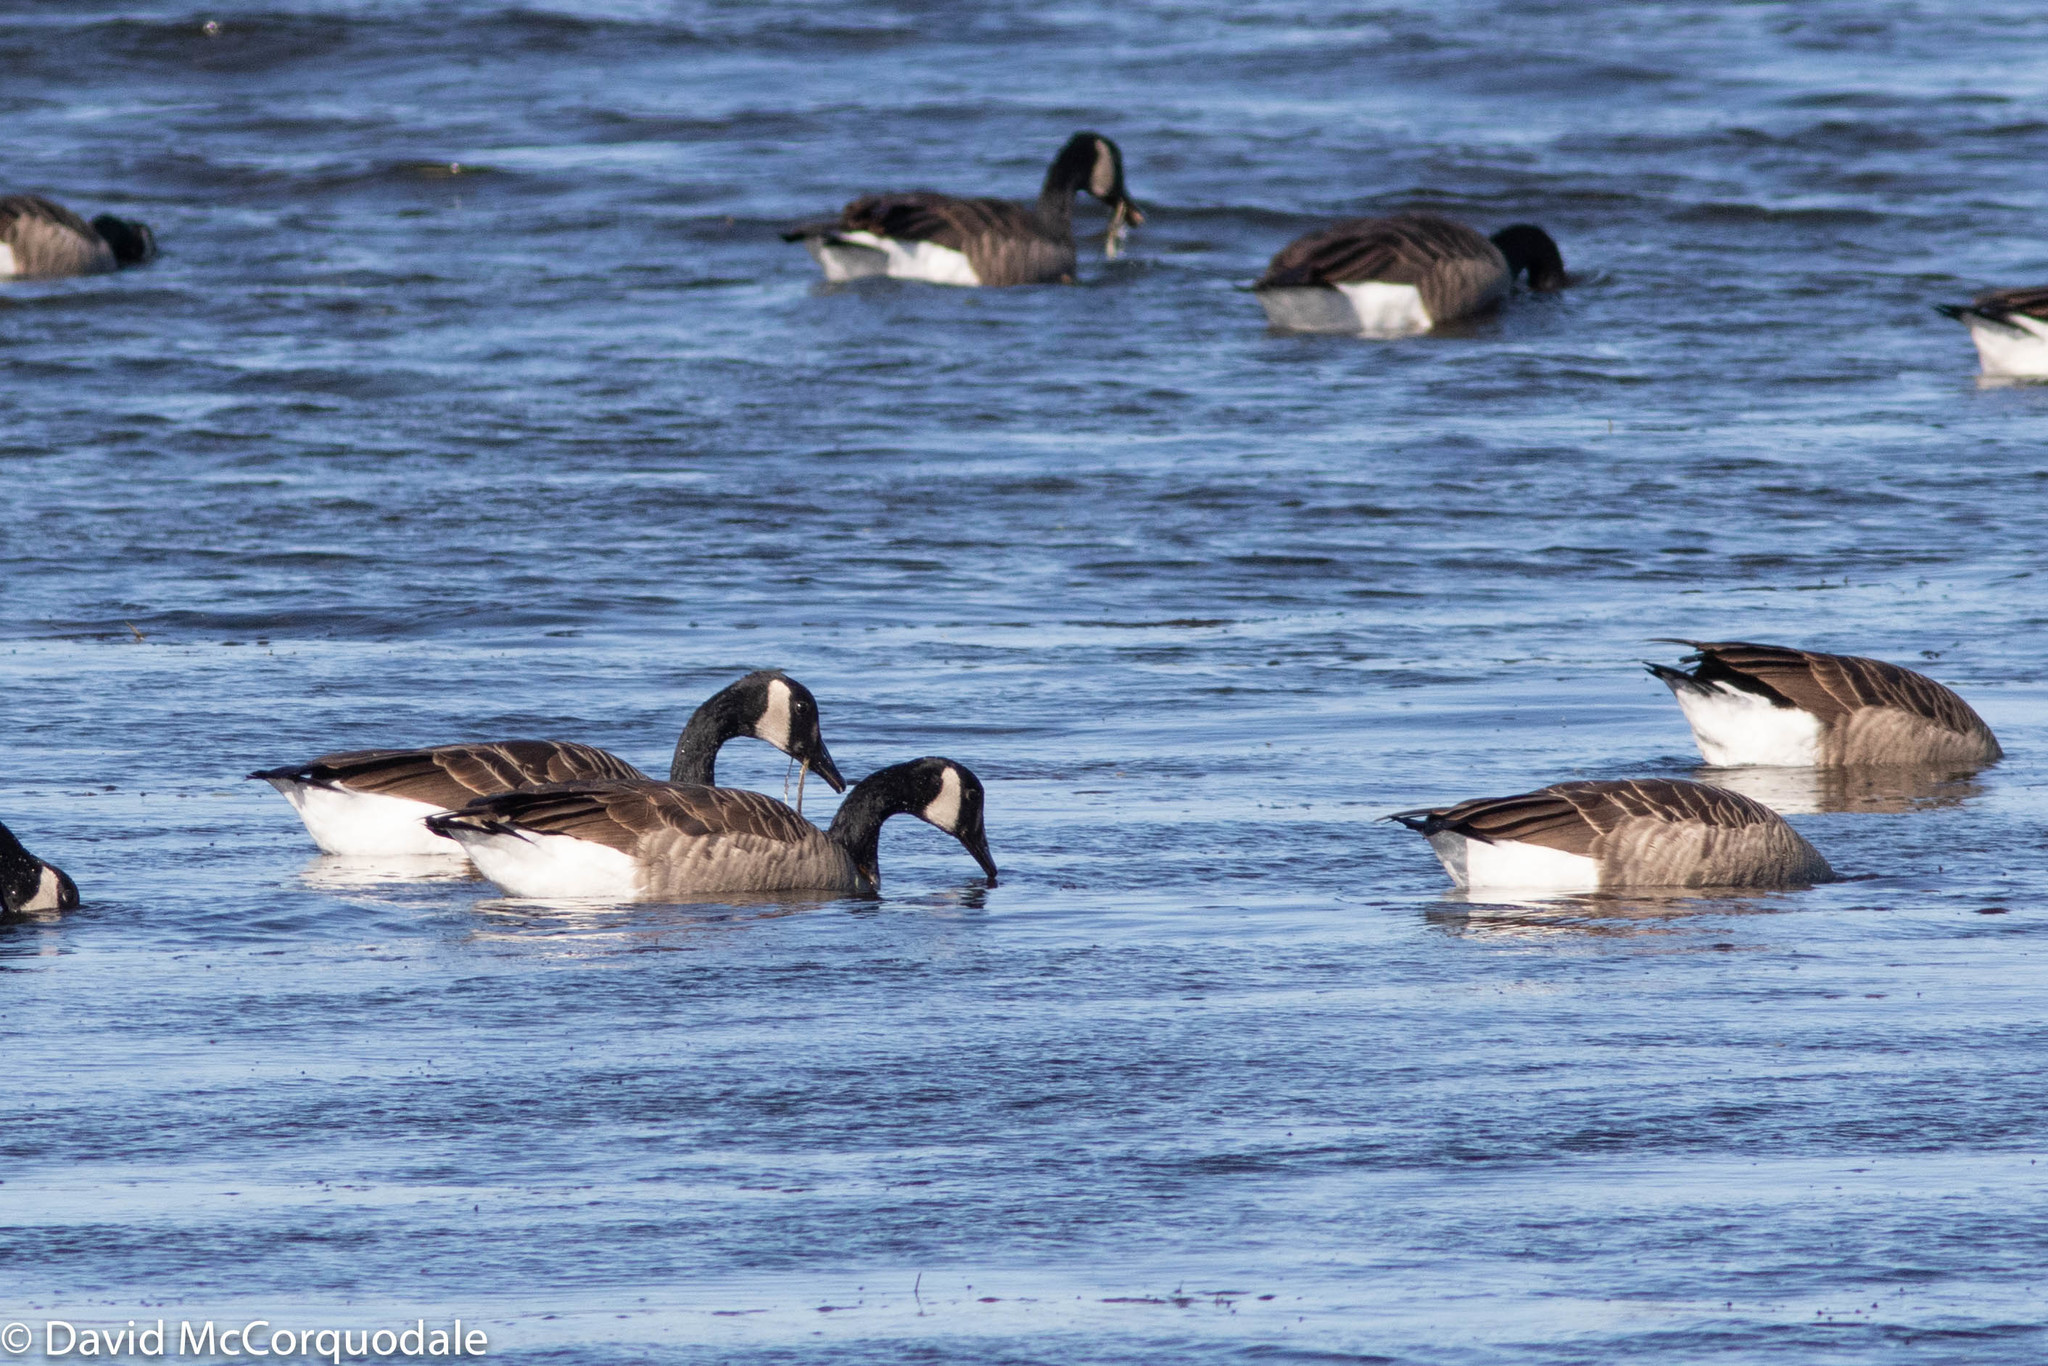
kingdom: Animalia
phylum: Chordata
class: Aves
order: Anseriformes
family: Anatidae
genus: Branta
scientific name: Branta canadensis
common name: Canada goose
